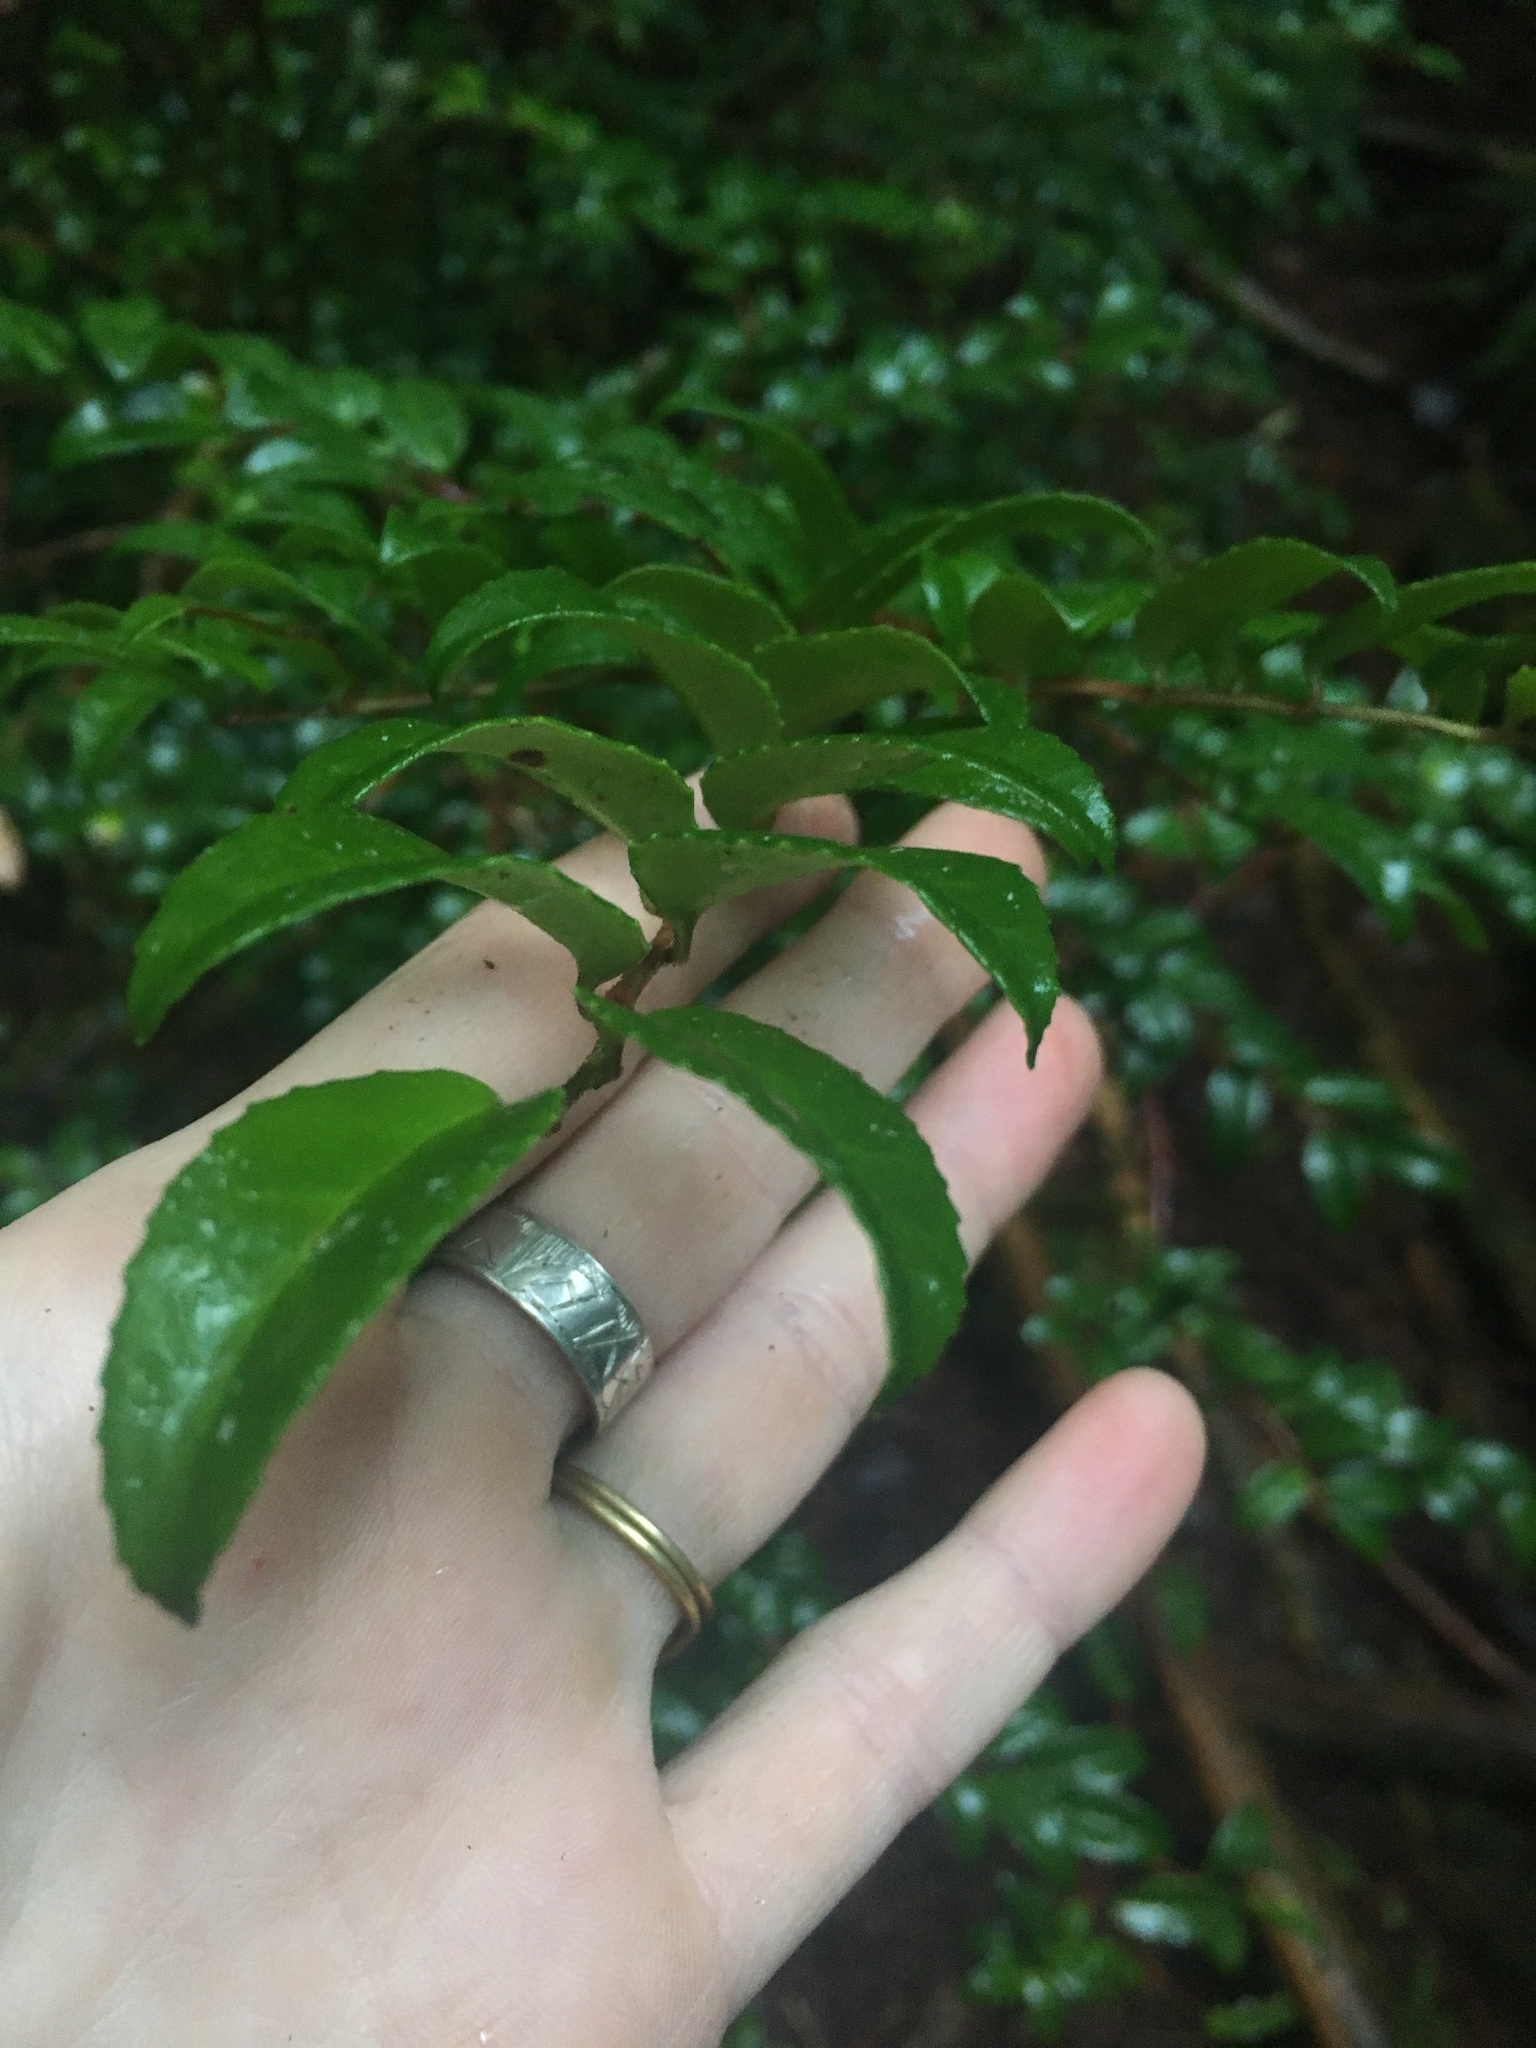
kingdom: Plantae
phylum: Tracheophyta
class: Magnoliopsida
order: Ericales
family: Ericaceae
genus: Vaccinium
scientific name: Vaccinium ovatum
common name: California-huckleberry
